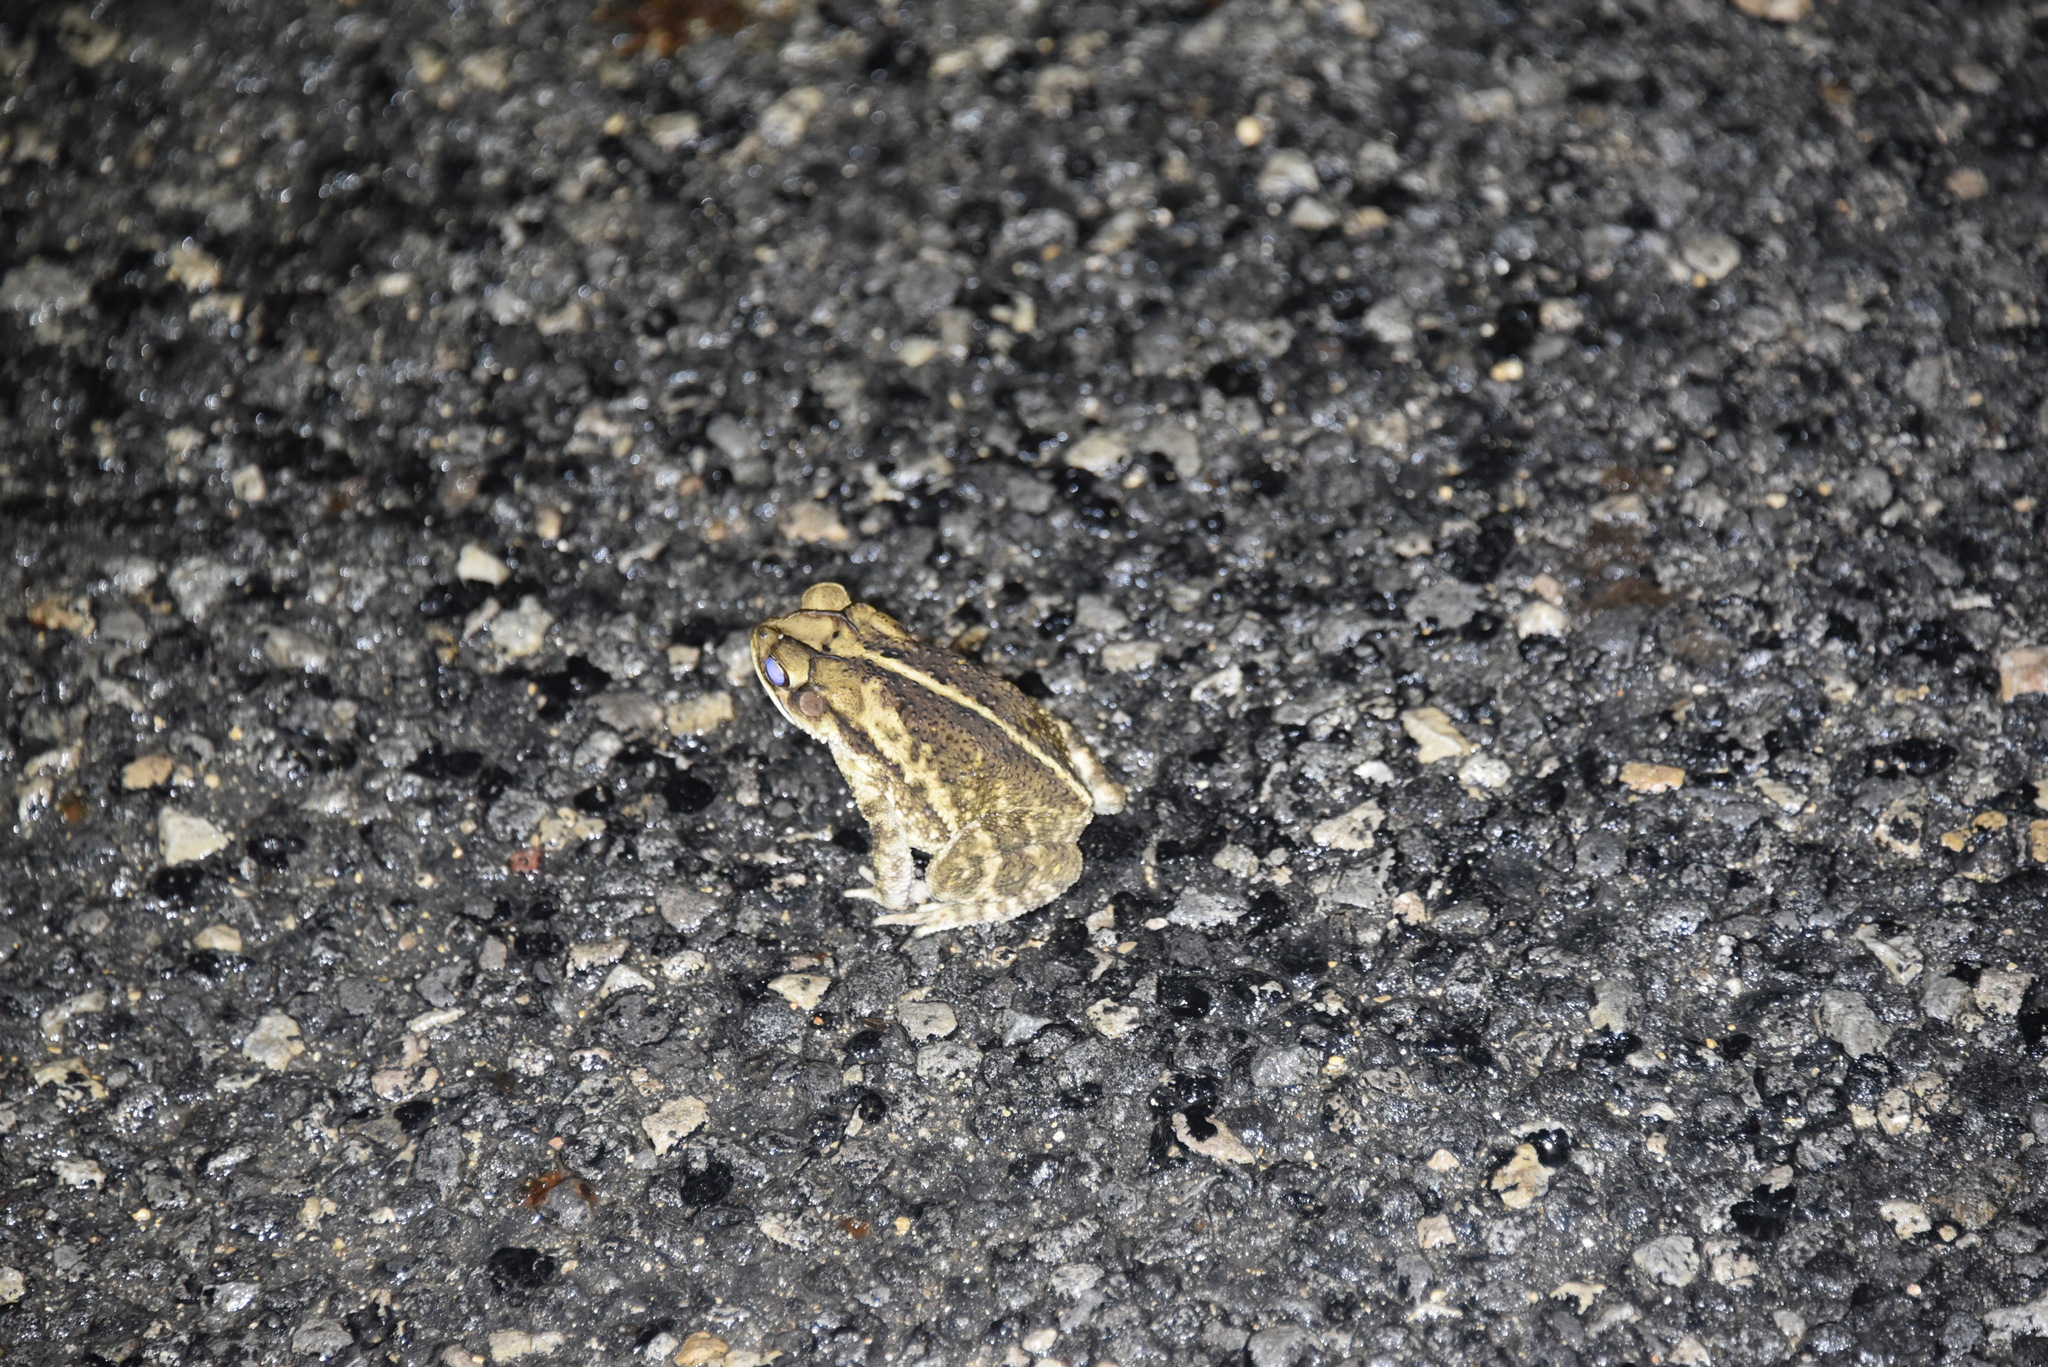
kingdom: Animalia
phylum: Chordata
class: Amphibia
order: Anura
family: Bufonidae
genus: Incilius
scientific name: Incilius nebulifer
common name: Gulf coast toad
